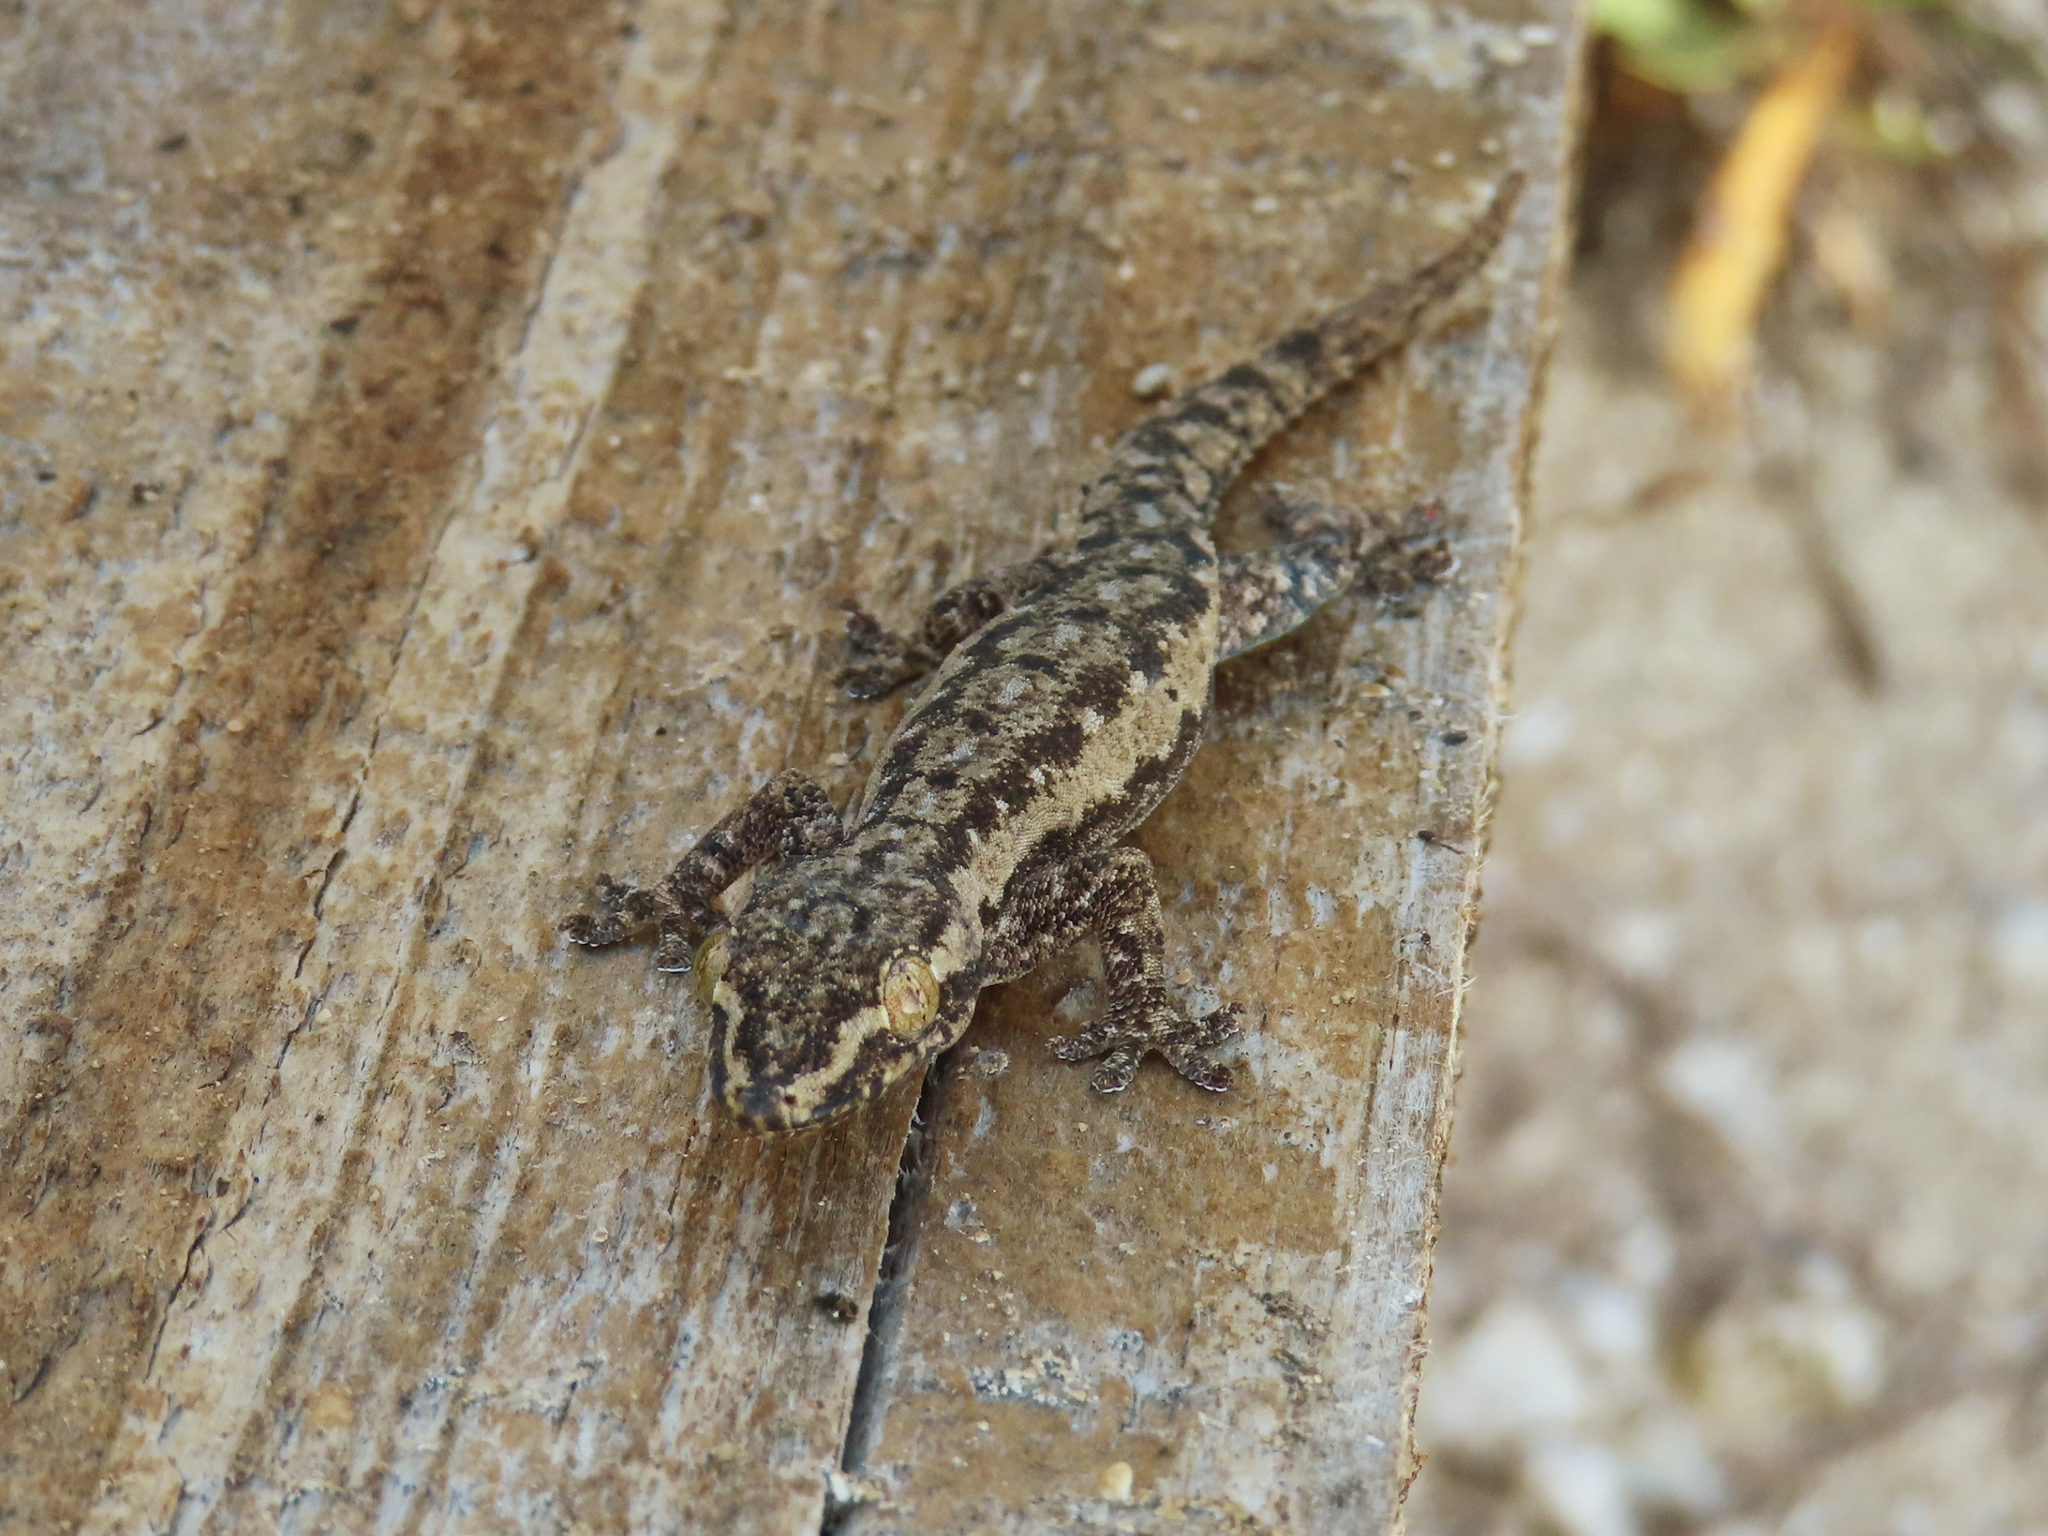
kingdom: Animalia
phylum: Chordata
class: Squamata
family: Gekkonidae
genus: Hemidactylus
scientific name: Hemidactylus frenatus
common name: Common house gecko
